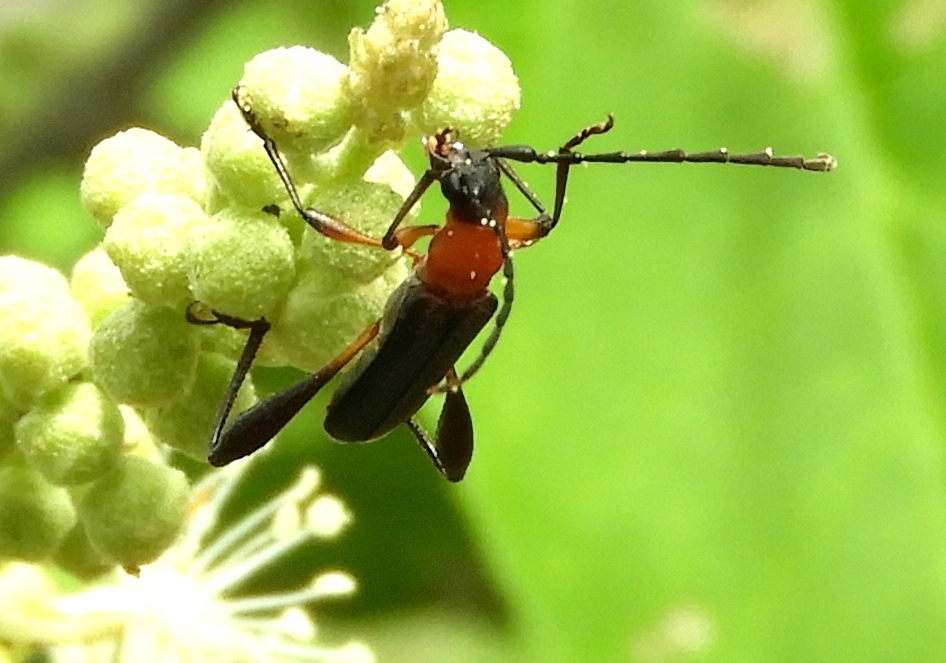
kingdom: Animalia
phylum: Arthropoda
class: Insecta
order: Coleoptera
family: Cerambycidae
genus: Pachymerola
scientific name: Pachymerola ruficollis
